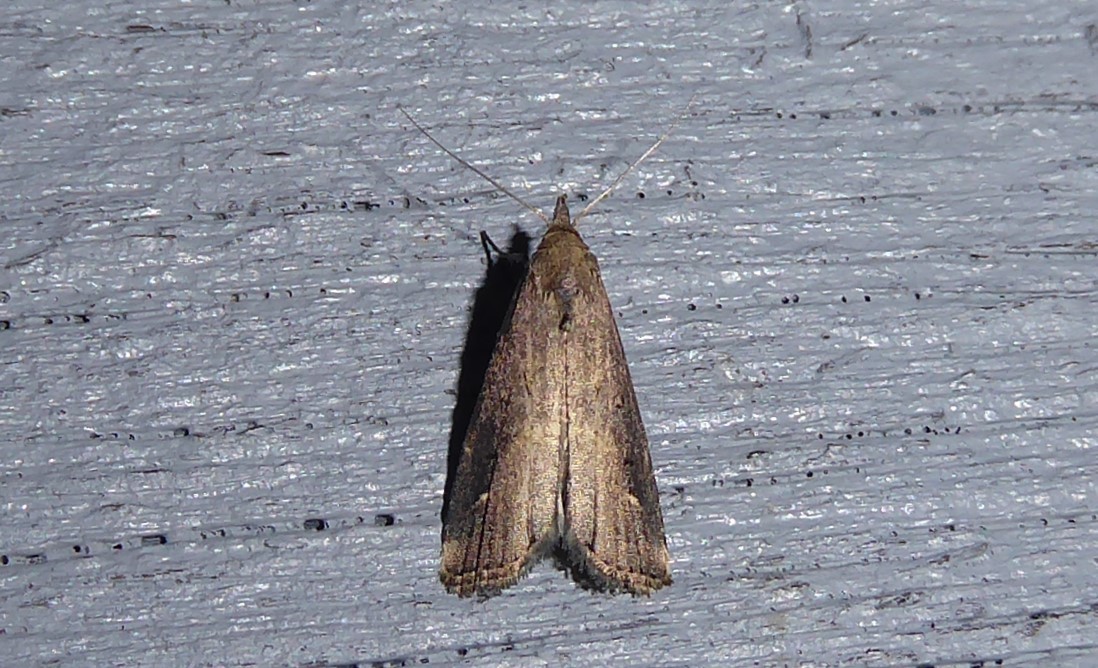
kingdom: Animalia
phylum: Arthropoda
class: Insecta
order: Lepidoptera
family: Erebidae
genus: Schrankia
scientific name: Schrankia costaestrigalis
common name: Pinion-streaked snout
